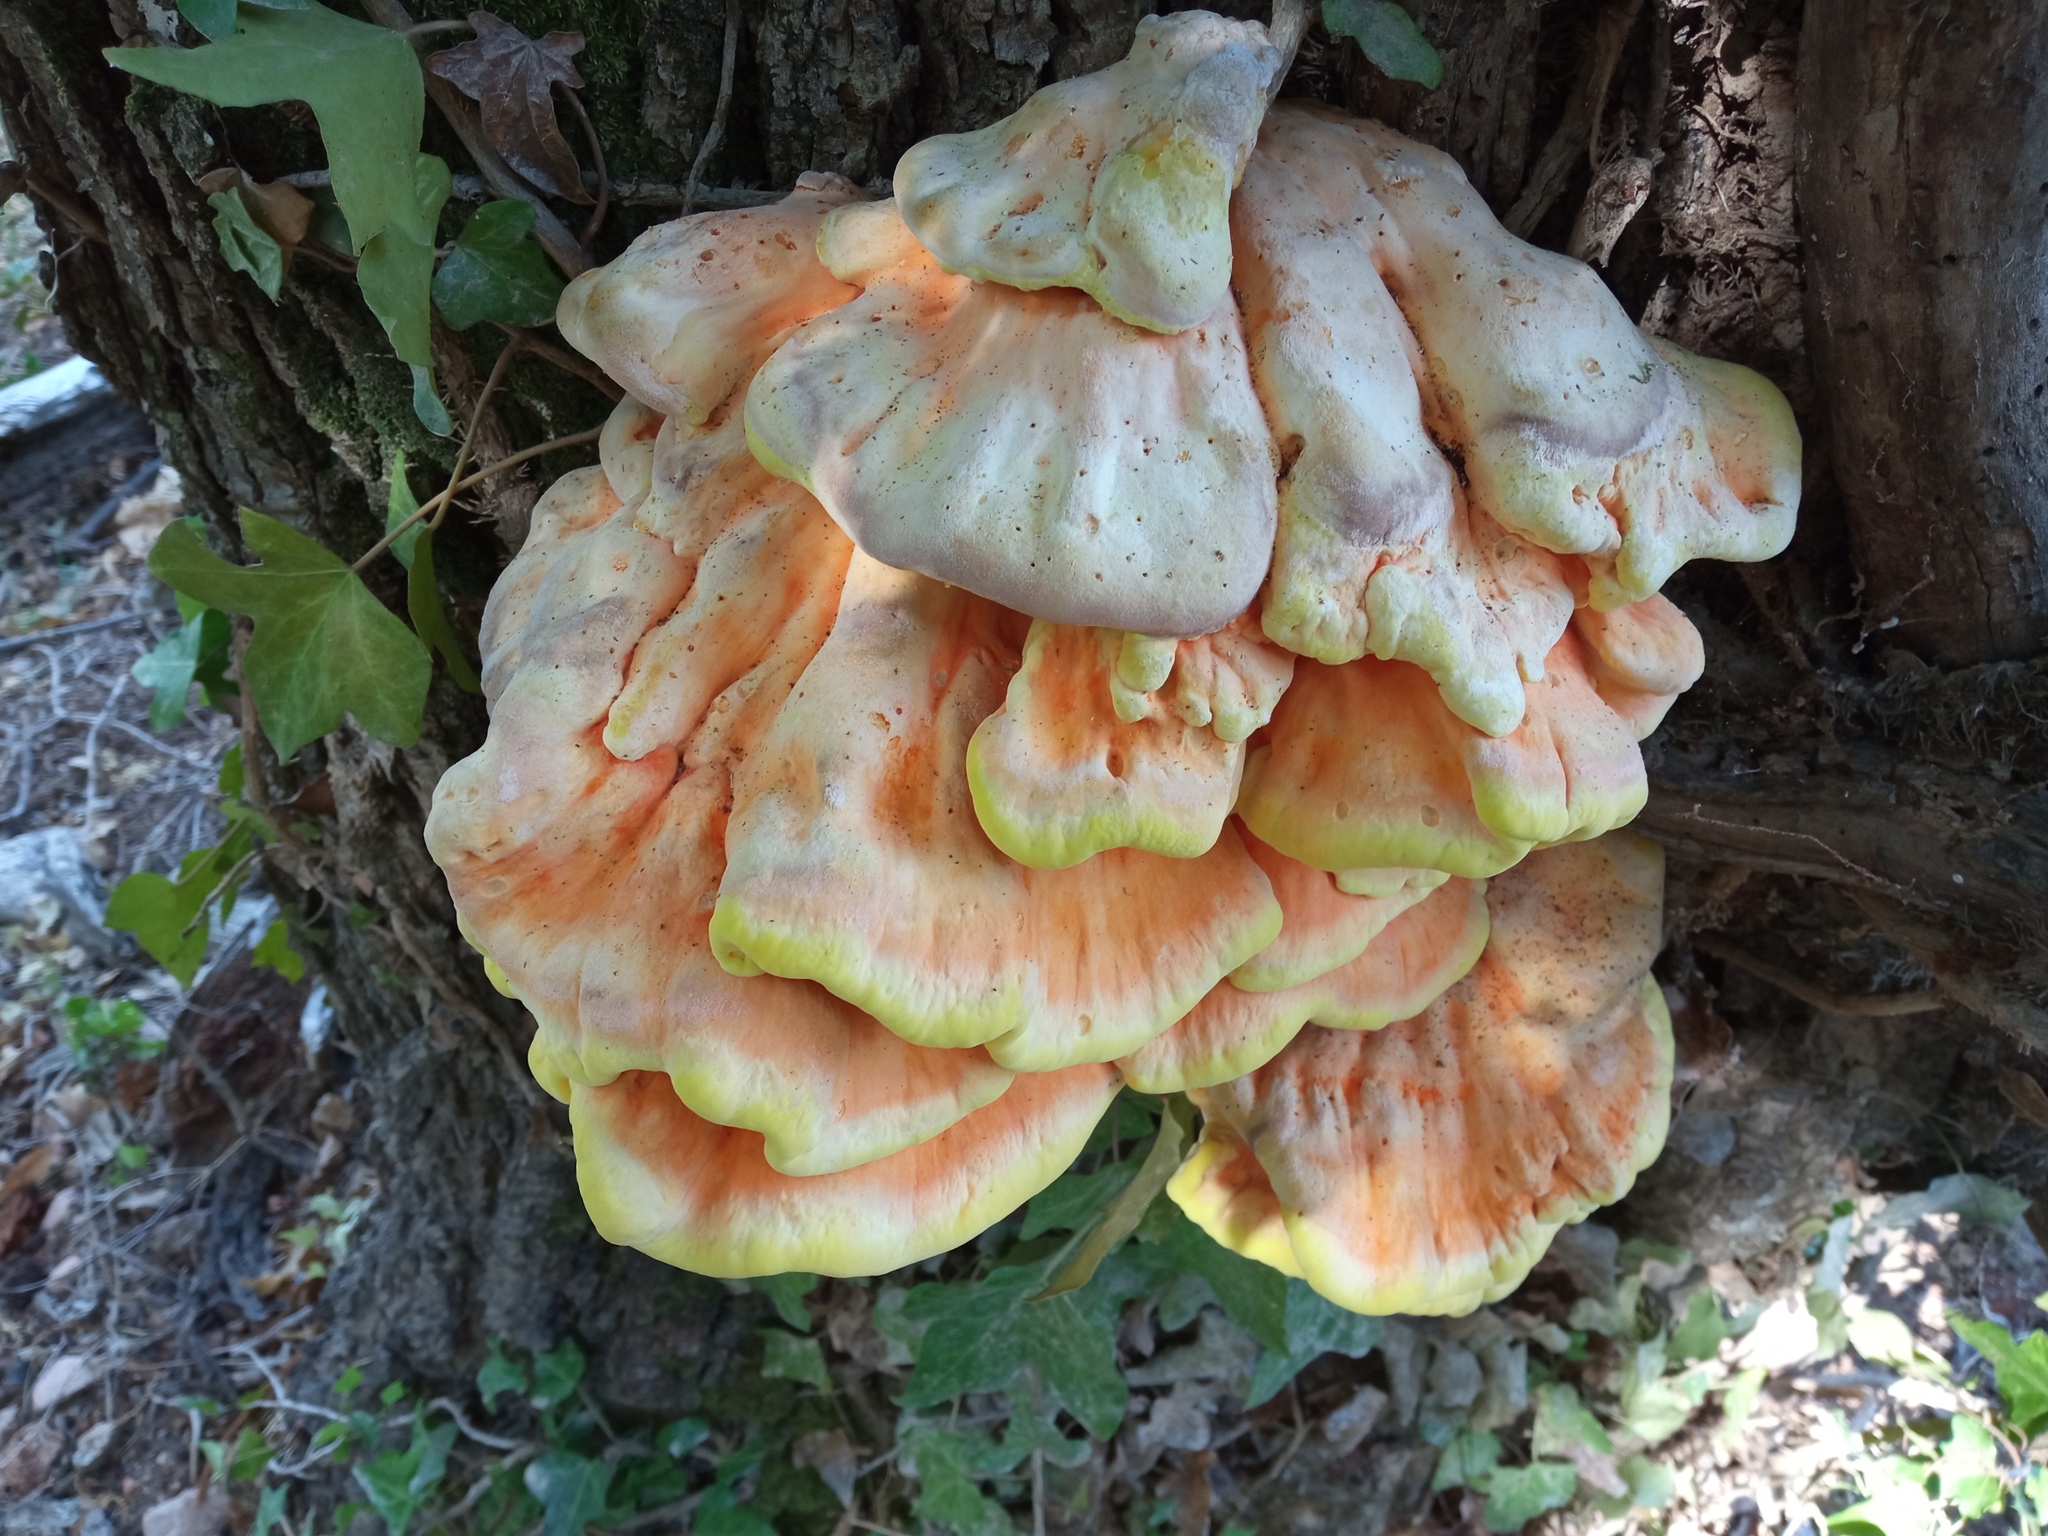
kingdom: Fungi
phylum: Basidiomycota
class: Agaricomycetes
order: Polyporales
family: Laetiporaceae
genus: Laetiporus
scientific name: Laetiporus sulphureus
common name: Chicken of the woods
